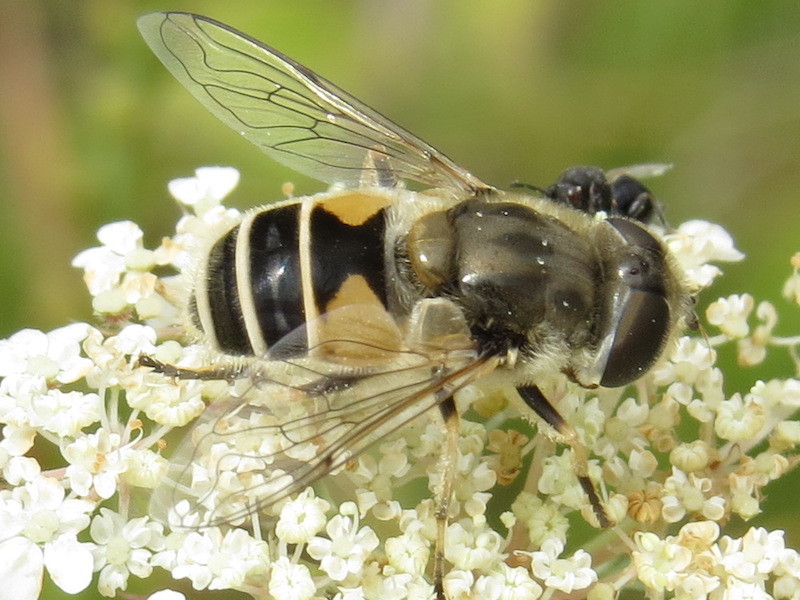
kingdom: Animalia
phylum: Arthropoda
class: Insecta
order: Diptera
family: Syrphidae
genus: Eristalis
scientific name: Eristalis arbustorum
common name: Hover fly
